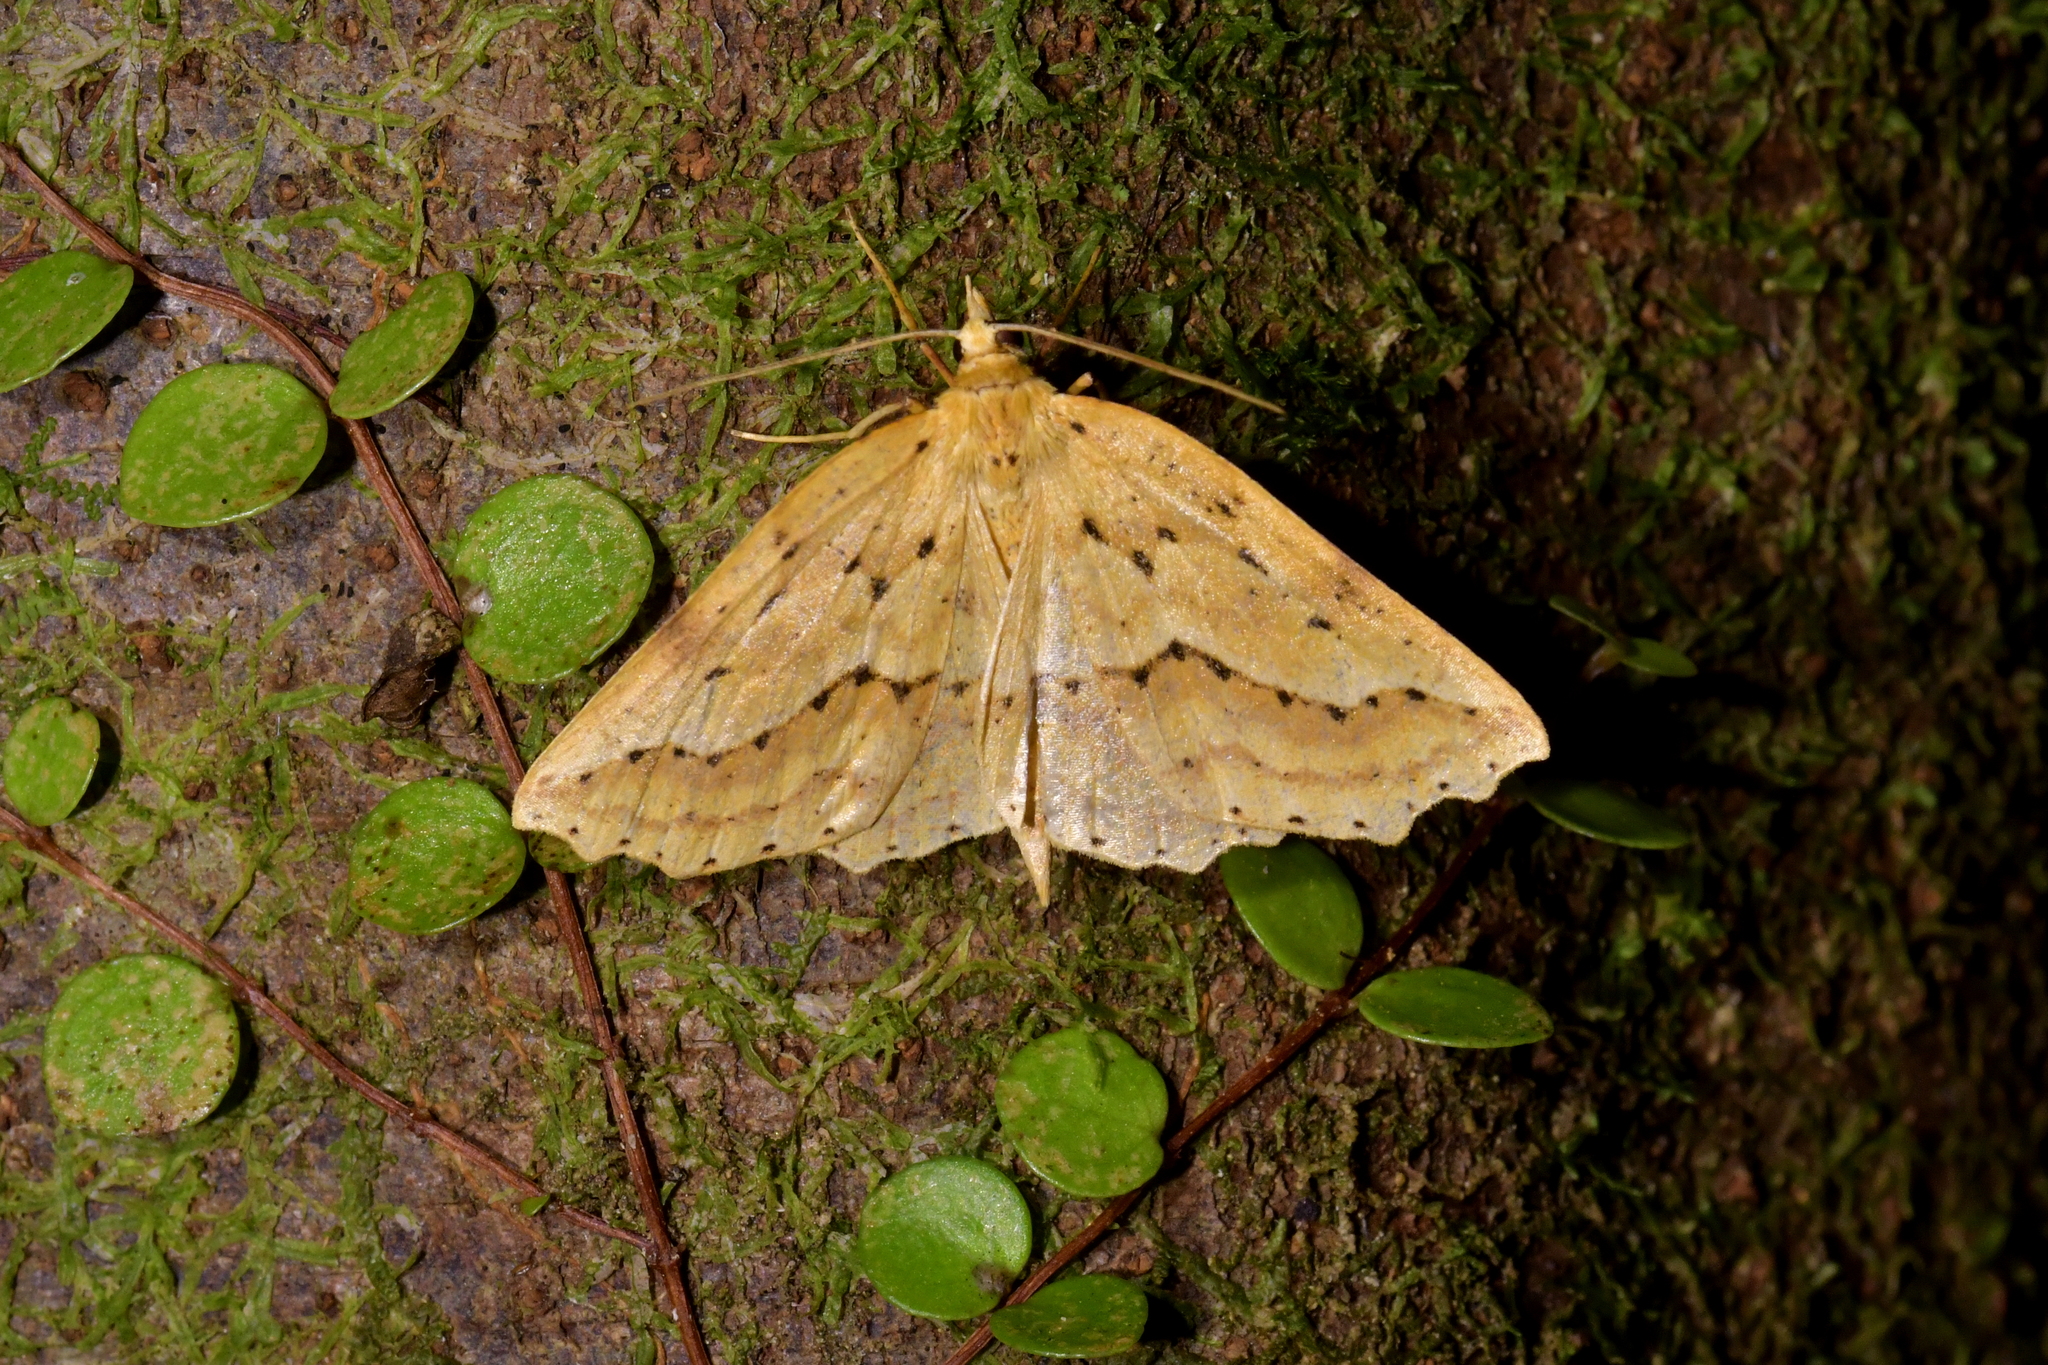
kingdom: Animalia
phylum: Arthropoda
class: Insecta
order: Lepidoptera
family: Geometridae
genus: Ischalis
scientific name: Ischalis variabilis
